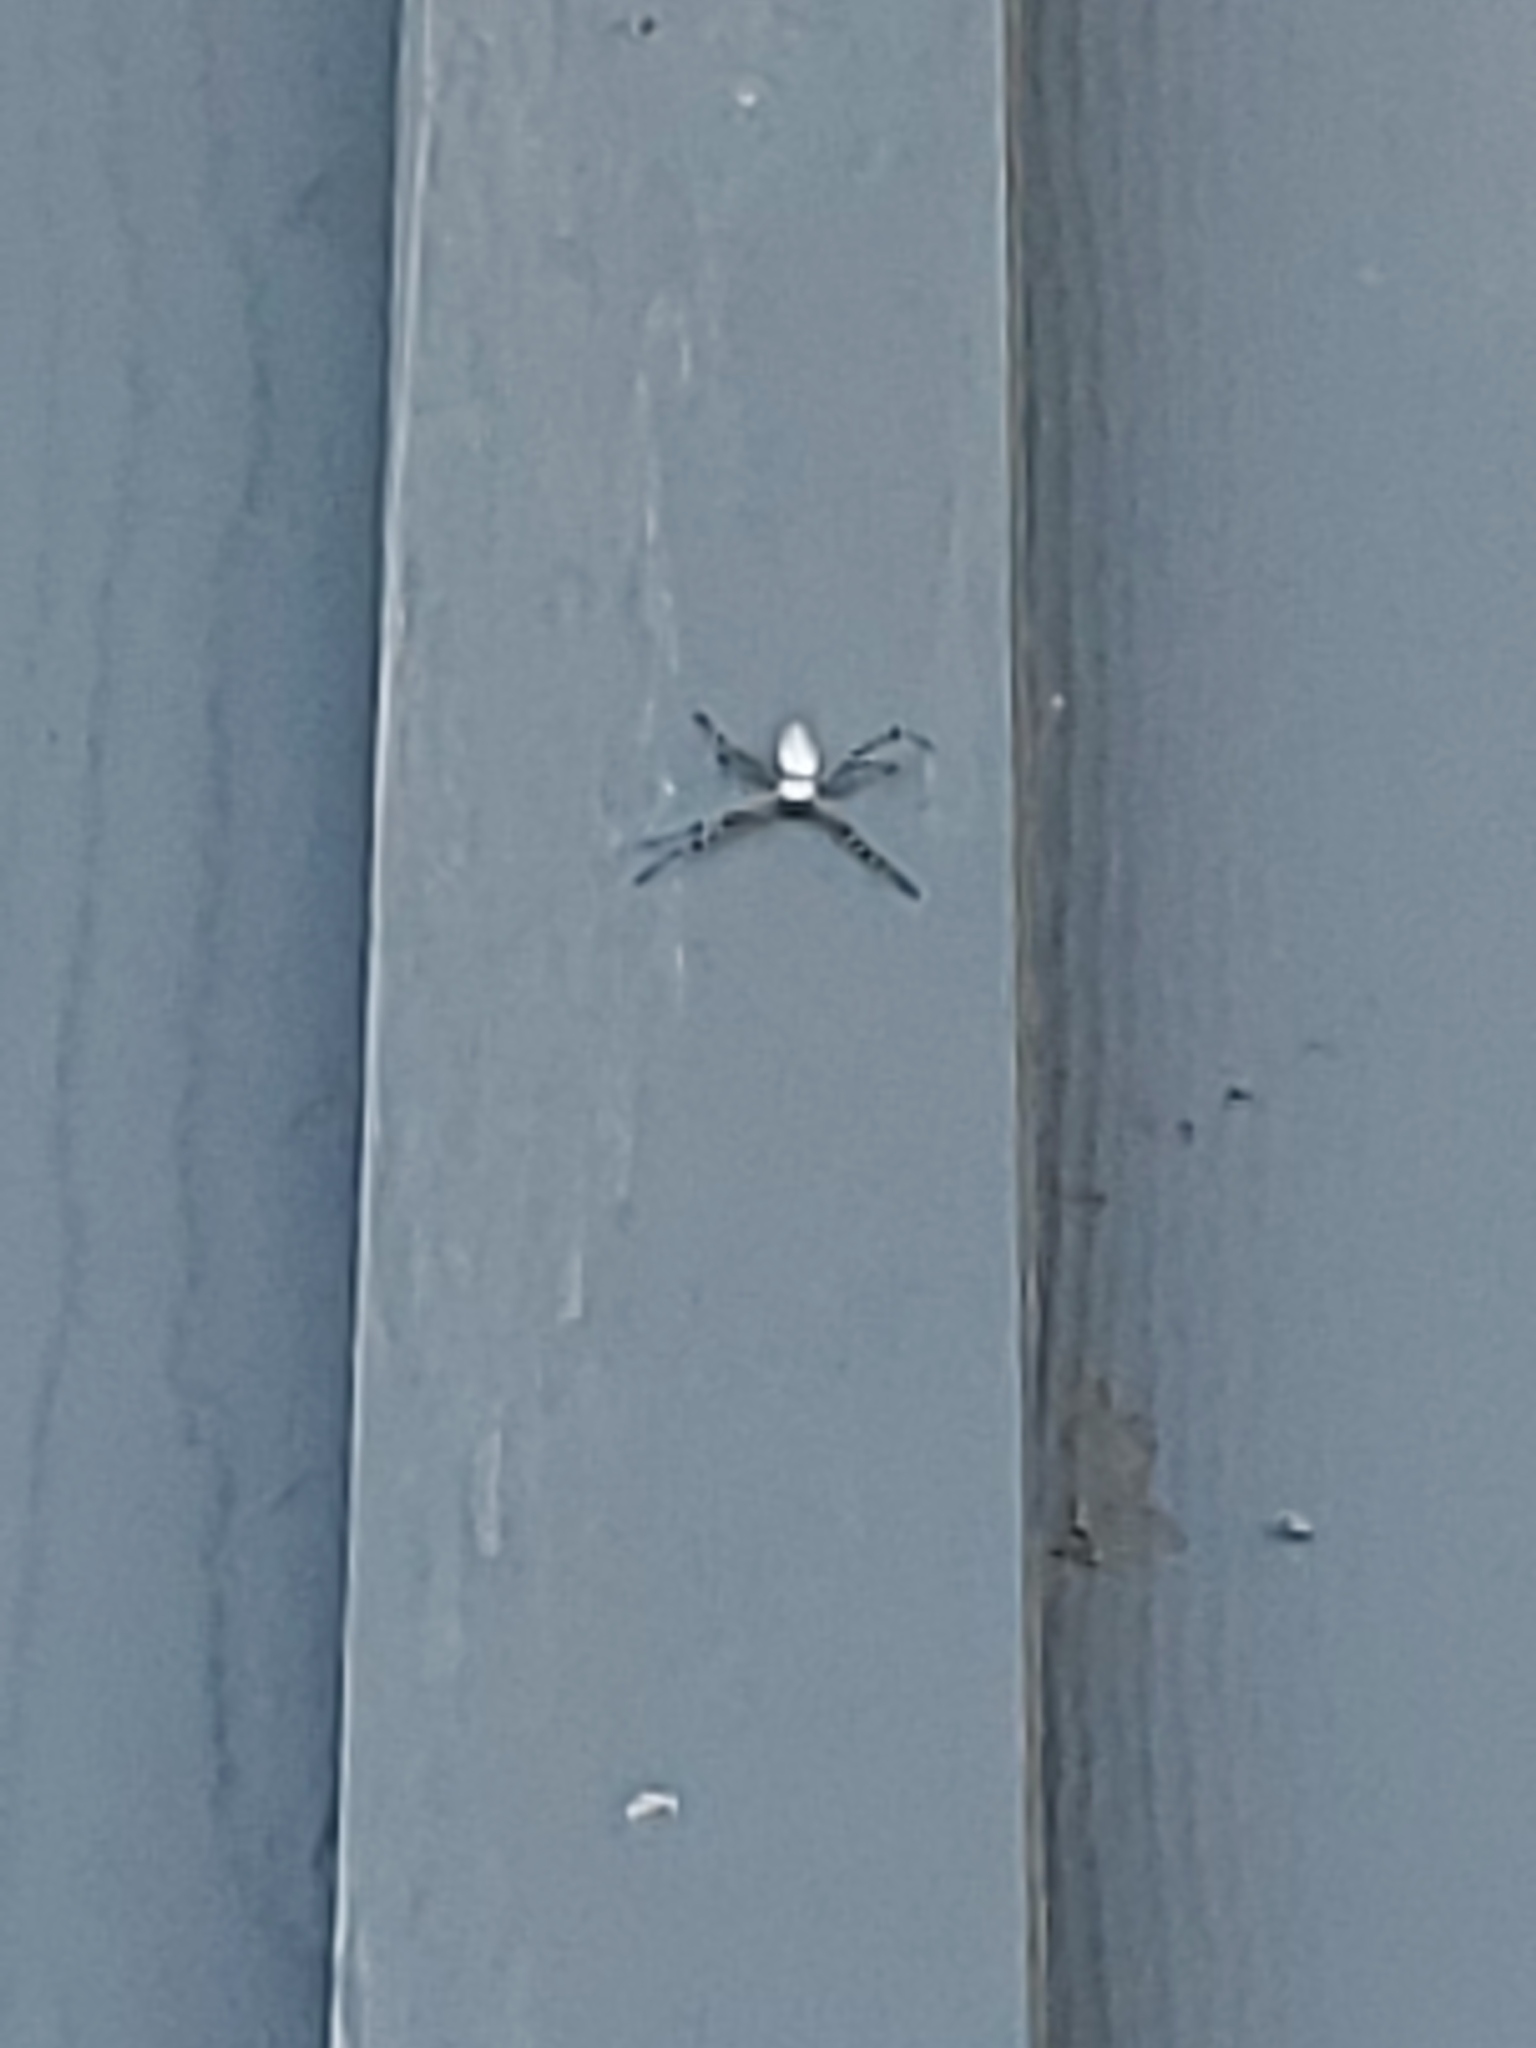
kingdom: Animalia
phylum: Arthropoda
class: Arachnida
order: Araneae
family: Araneidae
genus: Argiope
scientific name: Argiope trifasciata
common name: Banded garden spider
